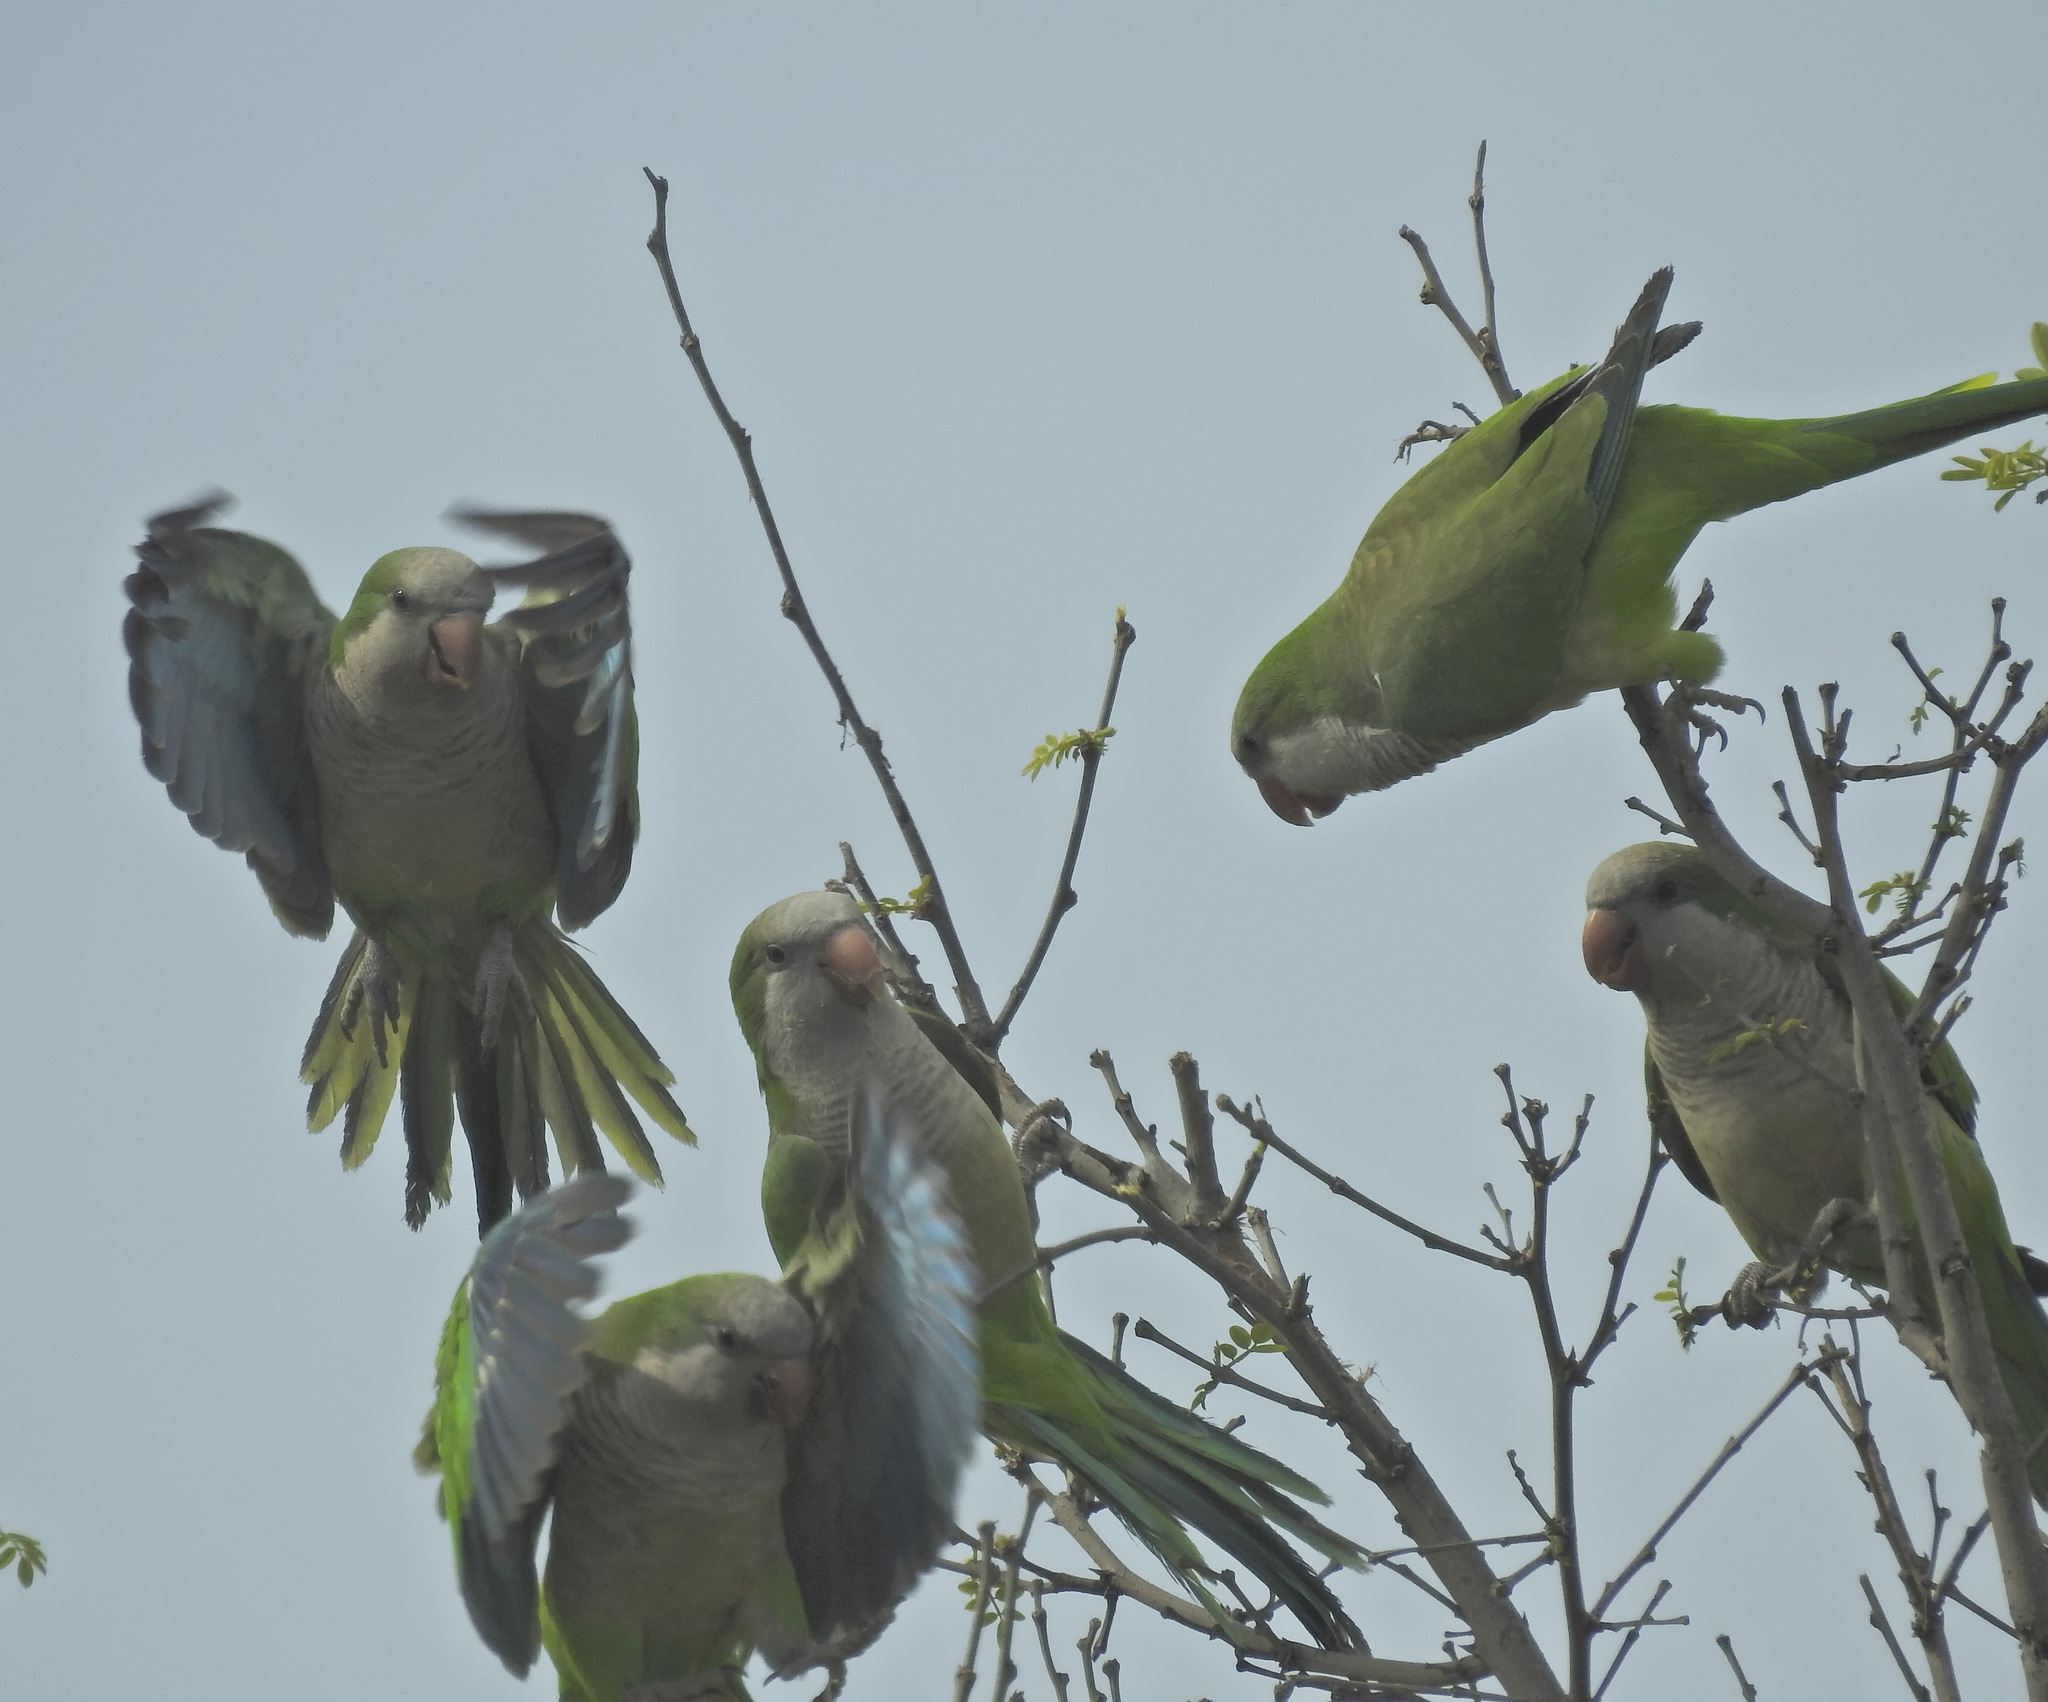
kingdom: Animalia
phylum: Chordata
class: Aves
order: Psittaciformes
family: Psittacidae
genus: Myiopsitta
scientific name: Myiopsitta monachus
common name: Monk parakeet
